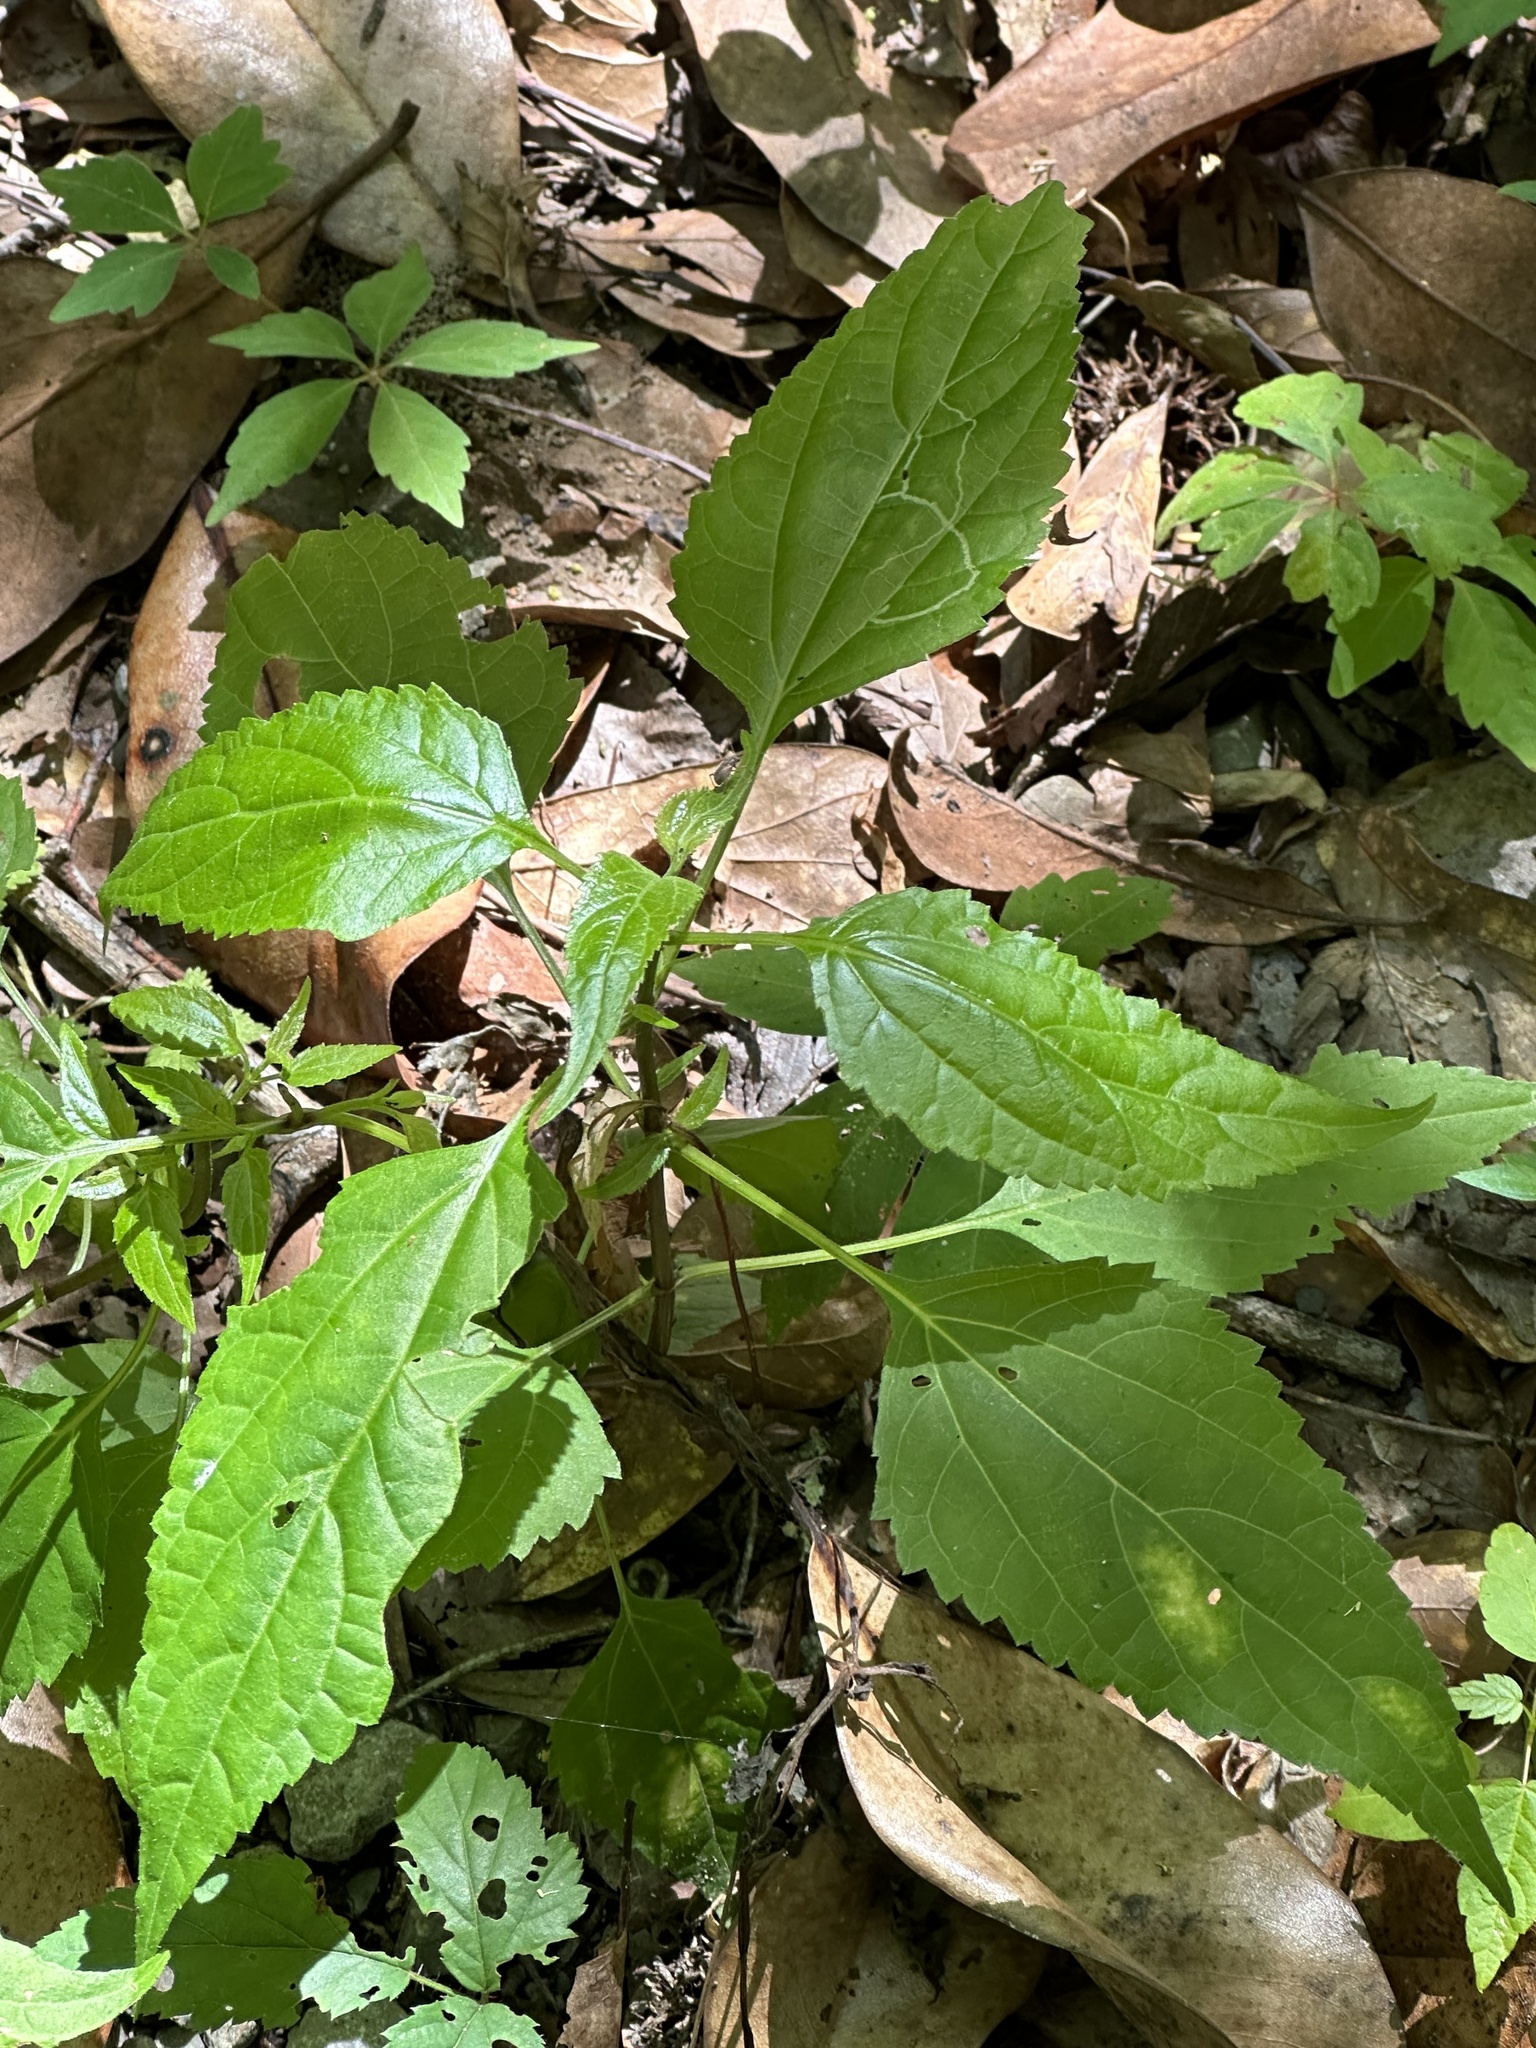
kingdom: Plantae
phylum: Tracheophyta
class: Magnoliopsida
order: Rosales
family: Urticaceae
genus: Boehmeria
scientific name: Boehmeria cylindrica
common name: Bog-hemp
